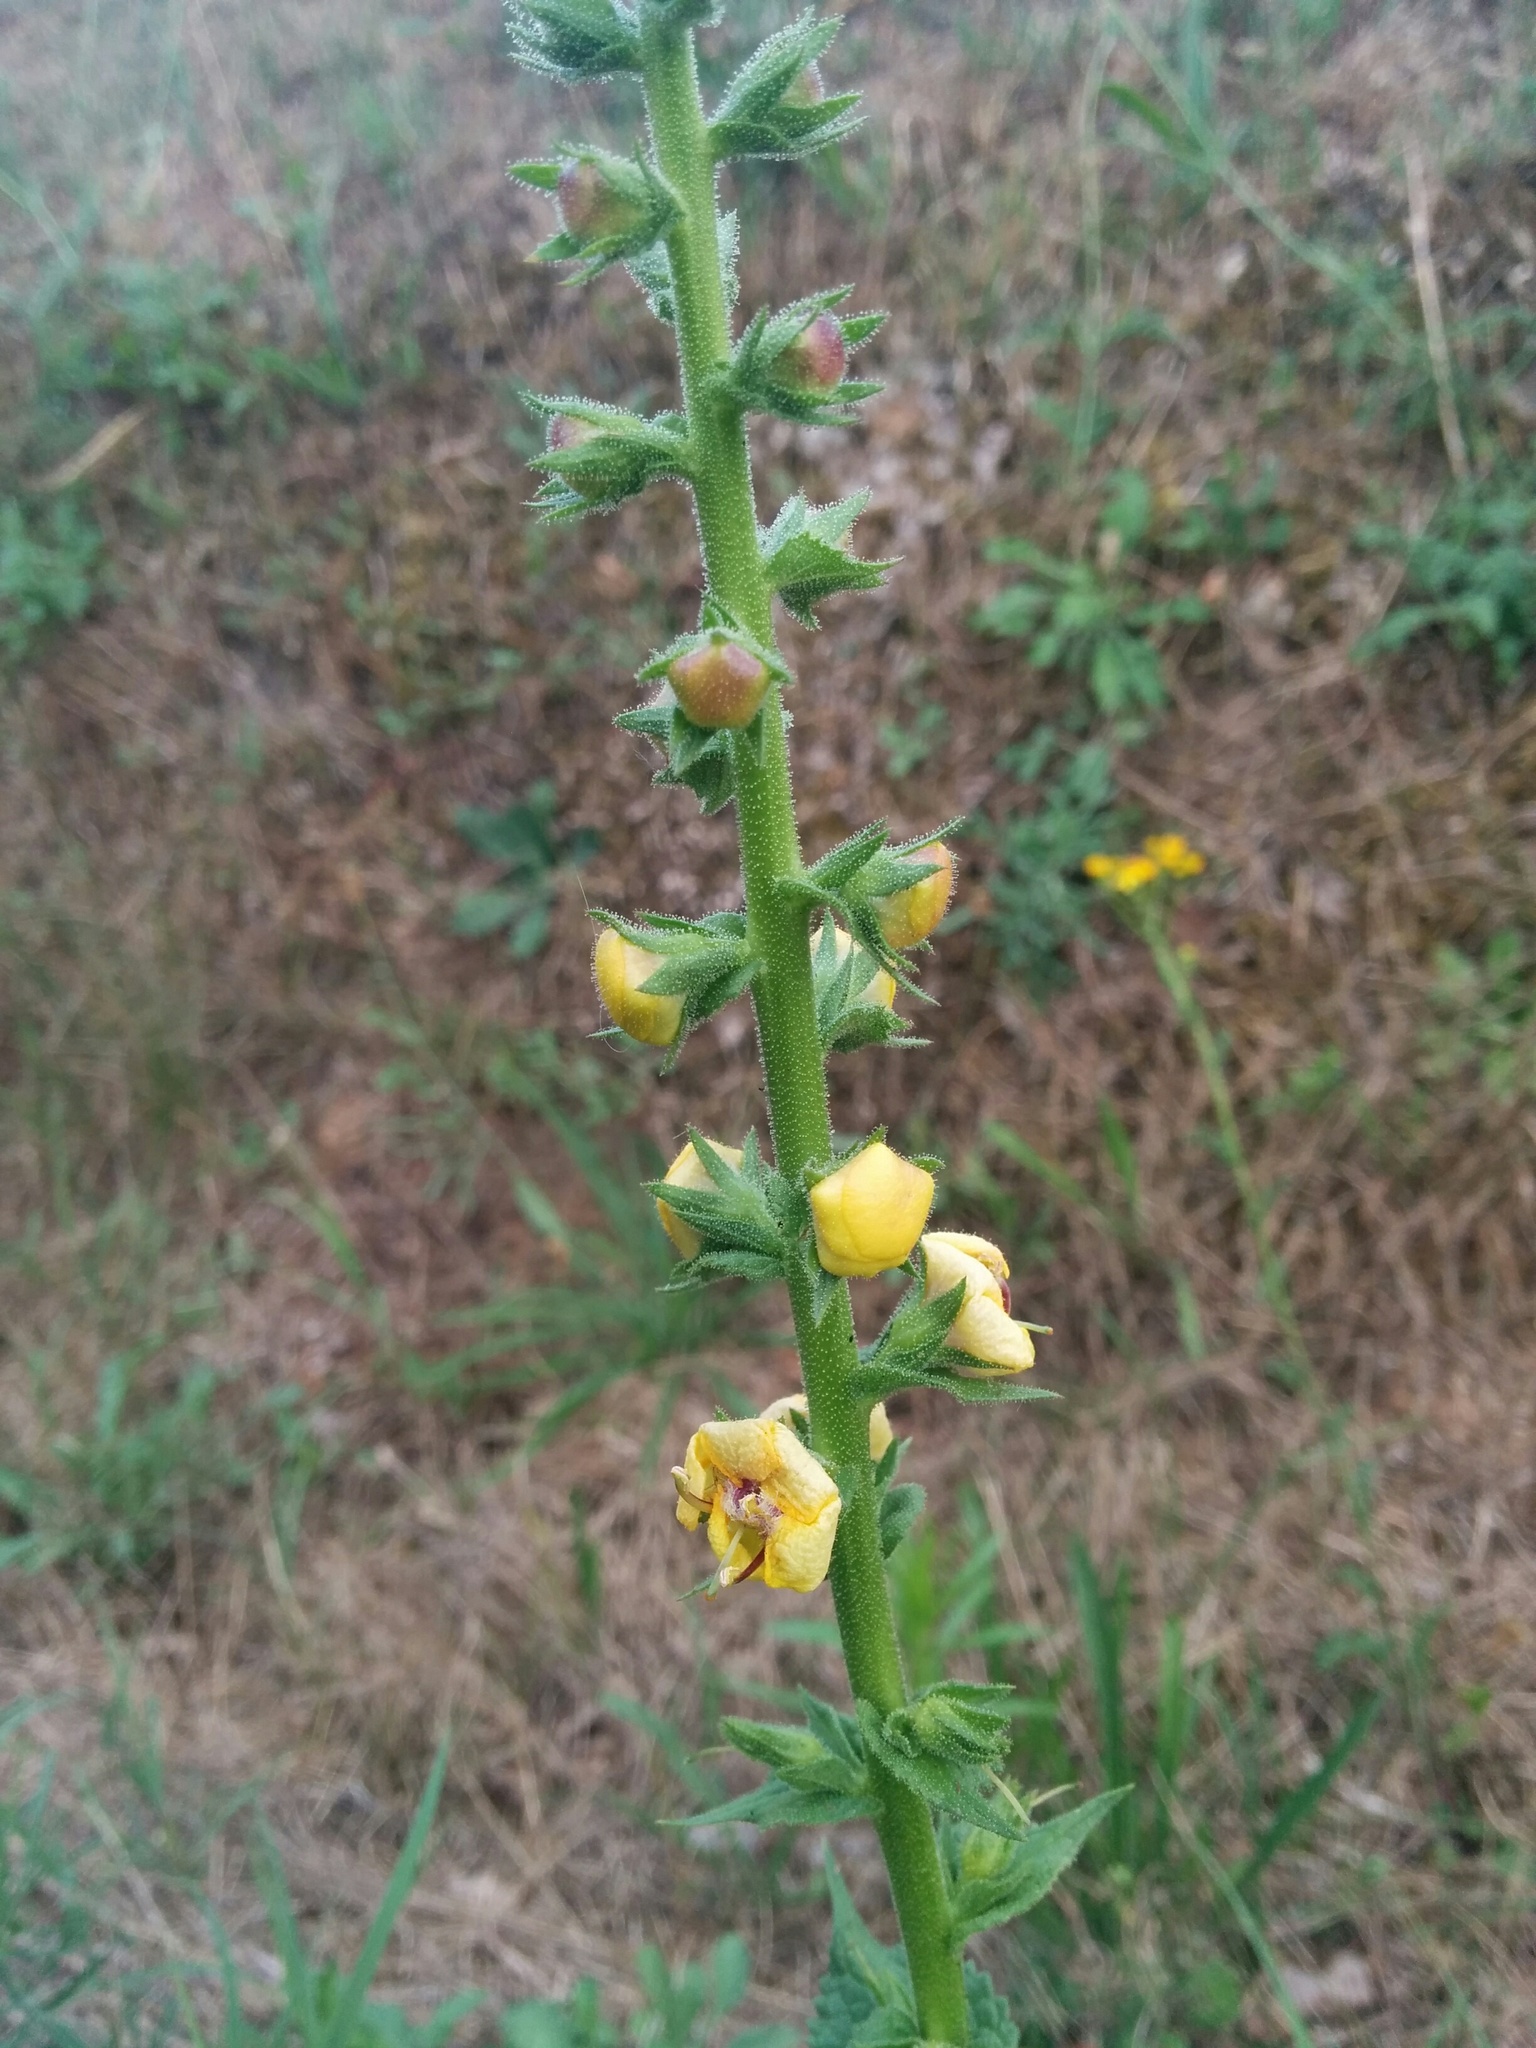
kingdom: Plantae
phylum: Tracheophyta
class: Magnoliopsida
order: Lamiales
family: Scrophulariaceae
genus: Verbascum
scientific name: Verbascum virgatum
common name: Twiggy mullein
